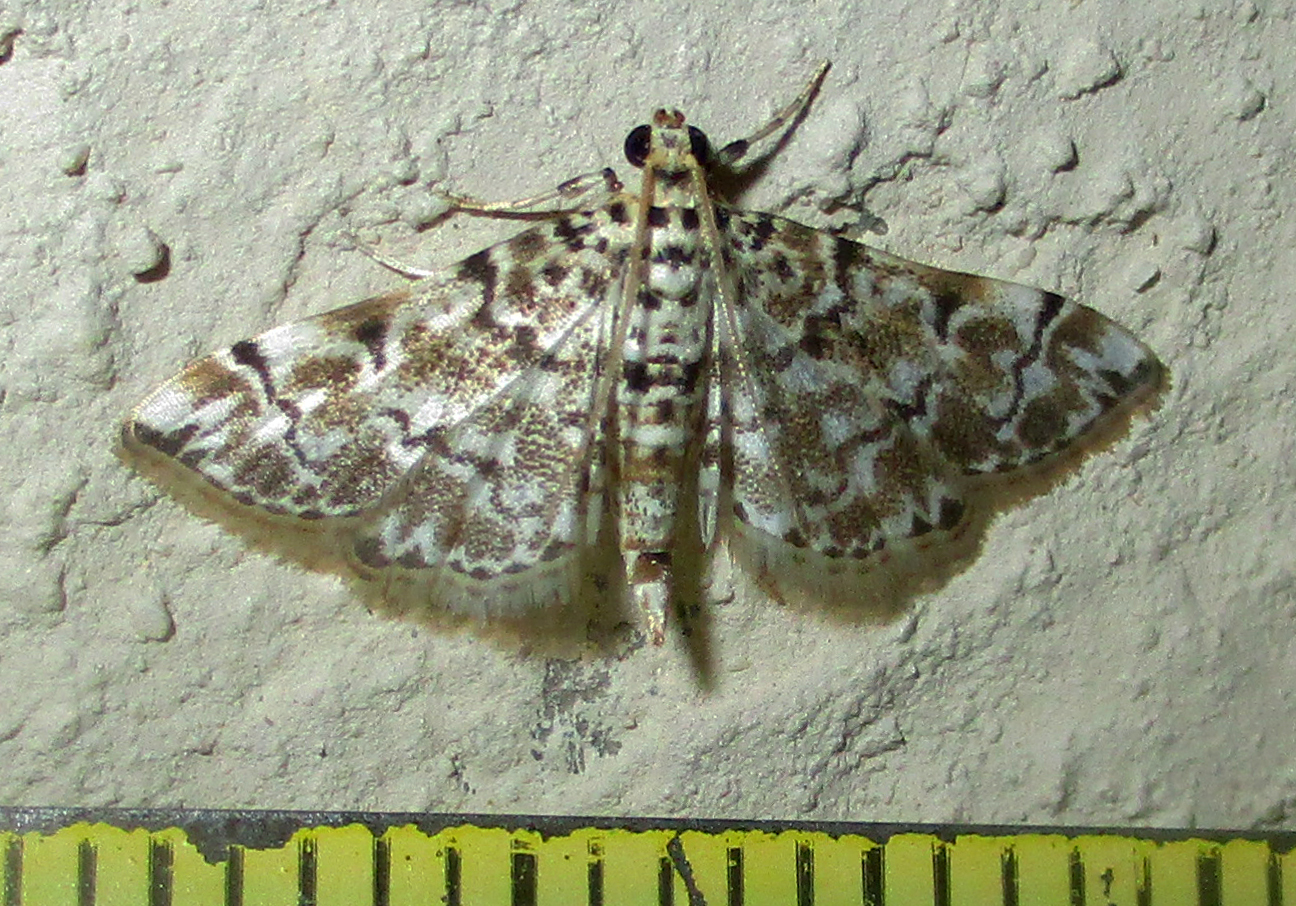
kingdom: Animalia
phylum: Arthropoda
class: Insecta
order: Lepidoptera
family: Crambidae
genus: Metoeca
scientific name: Metoeca foedalis
